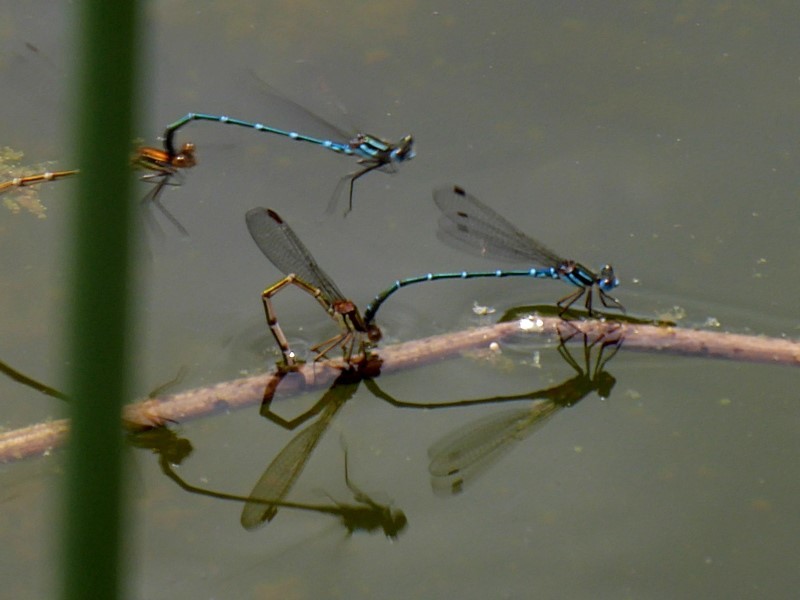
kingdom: Animalia
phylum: Arthropoda
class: Insecta
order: Odonata
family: Lestidae
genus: Austrolestes
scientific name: Austrolestes psyche
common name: Cup ringtail
